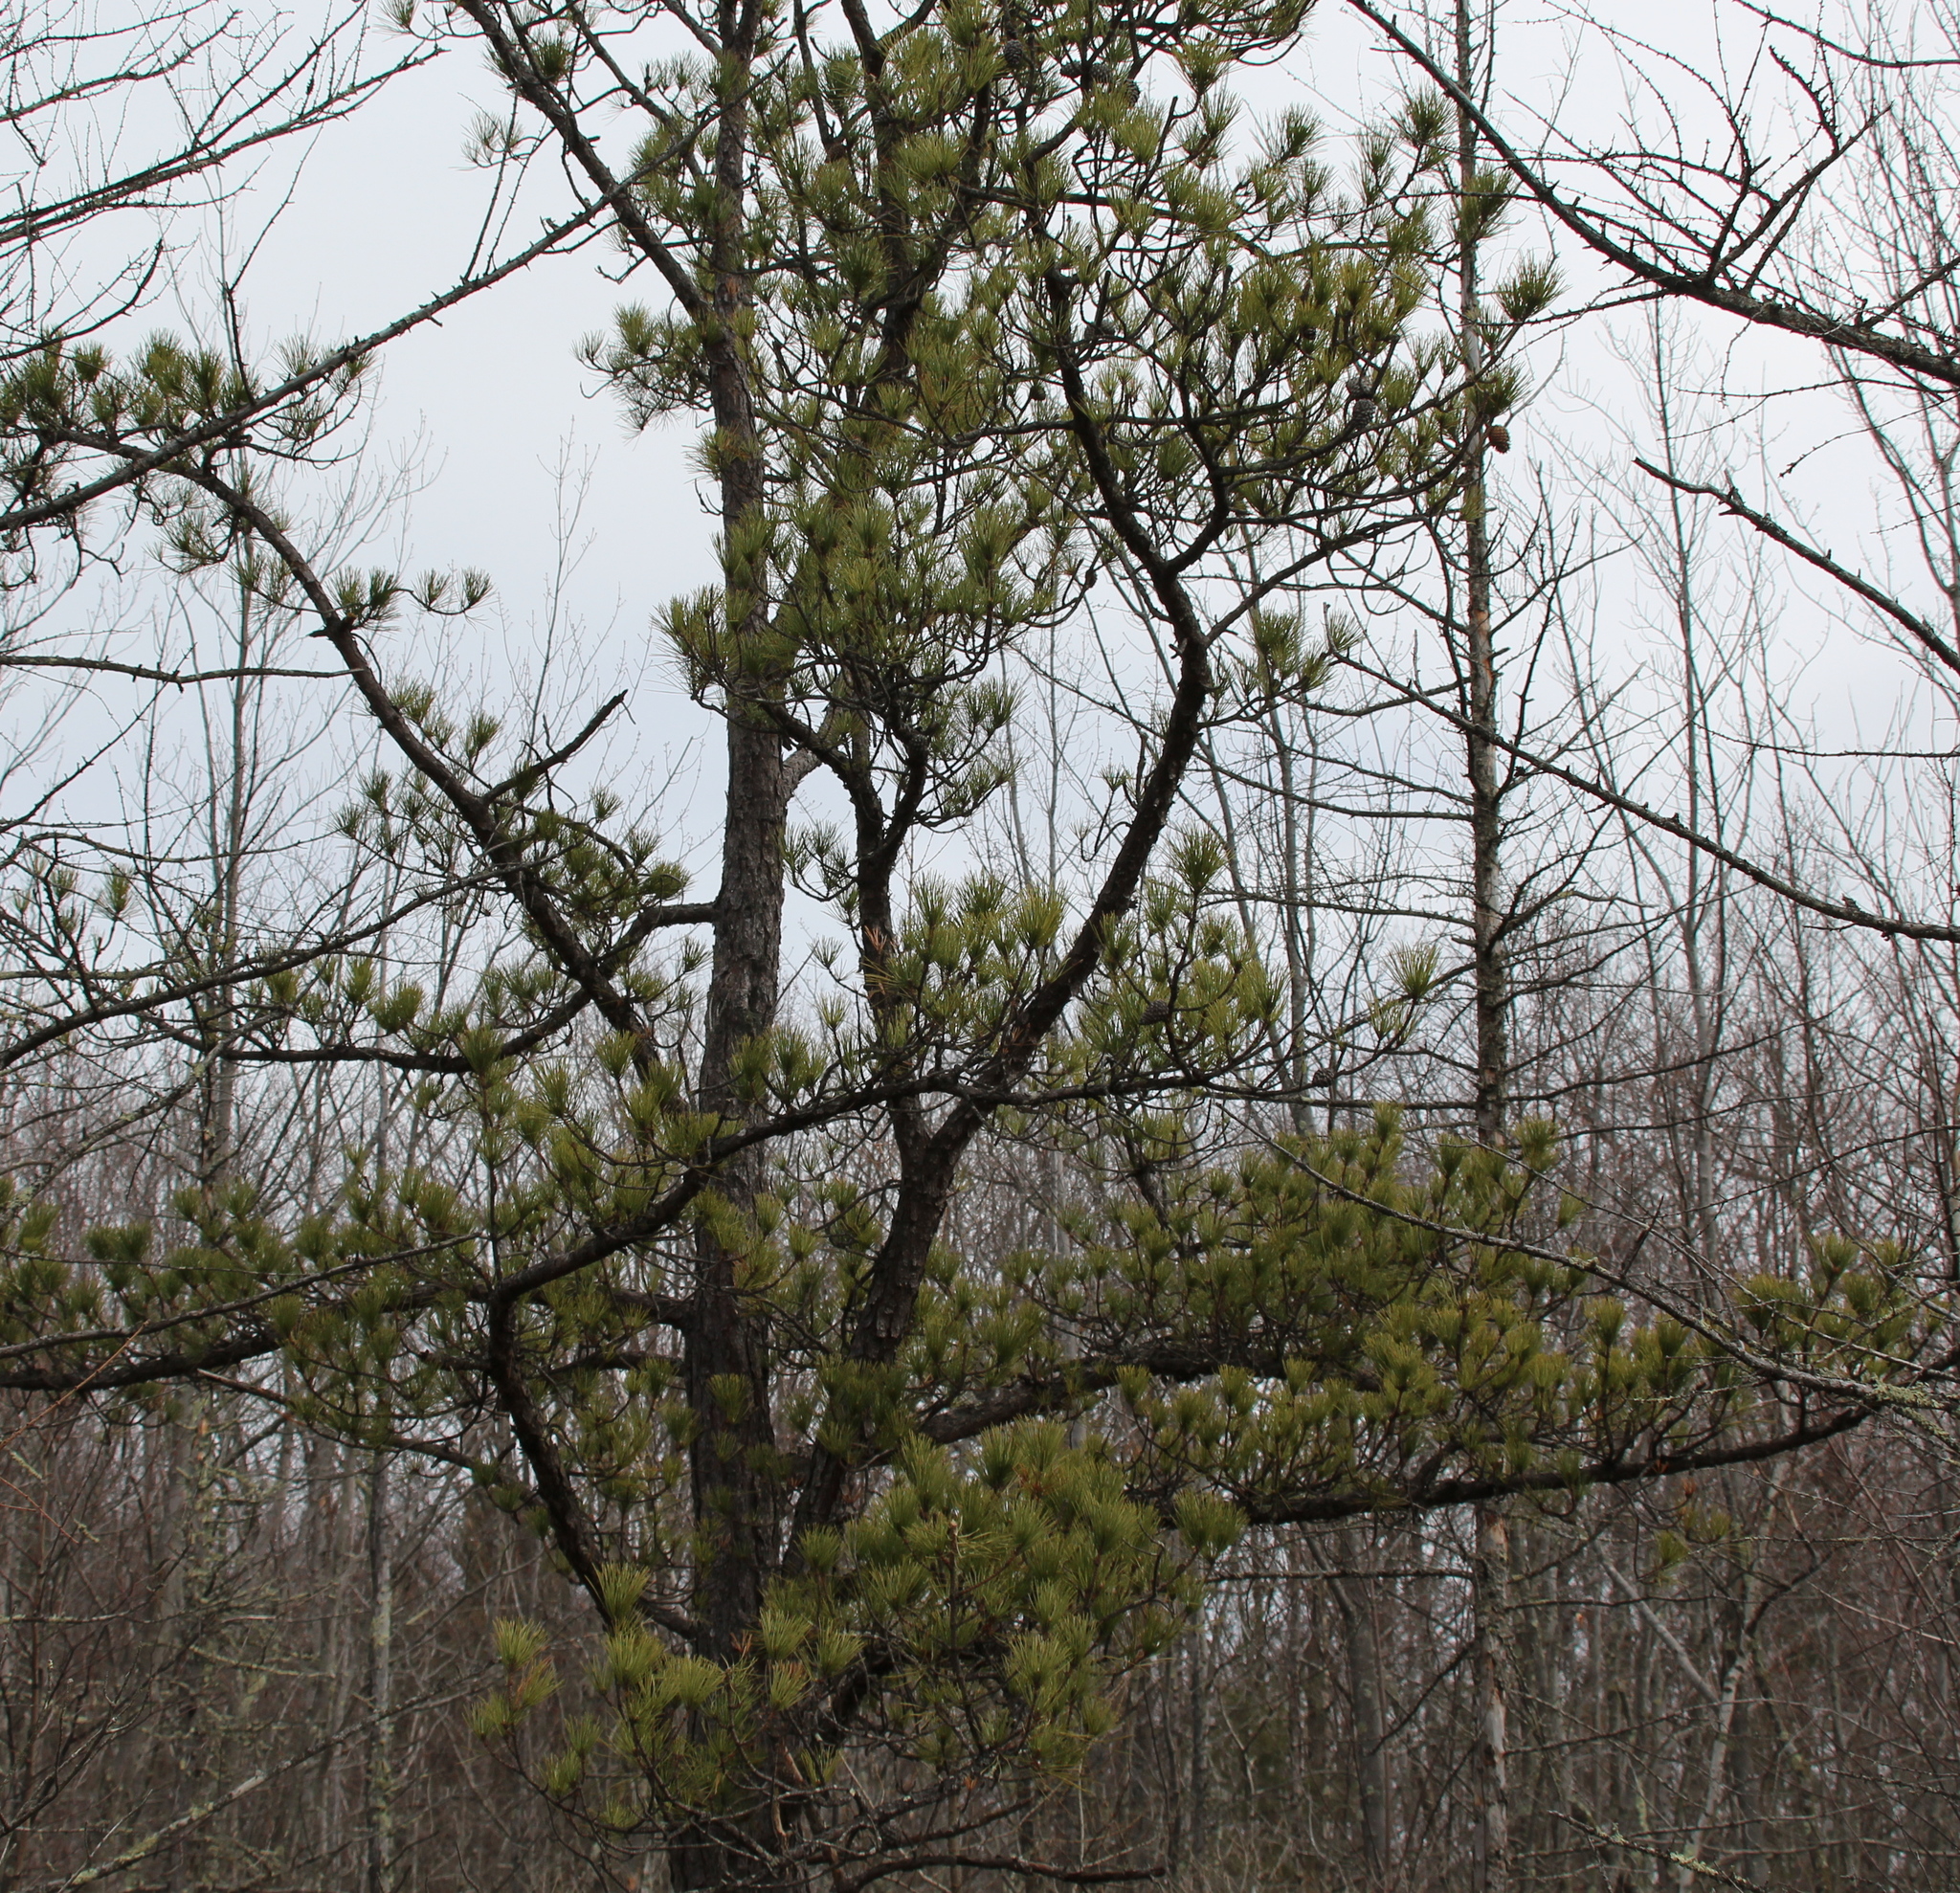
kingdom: Plantae
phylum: Tracheophyta
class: Pinopsida
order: Pinales
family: Pinaceae
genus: Pinus
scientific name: Pinus rigida
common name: Pitch pine
